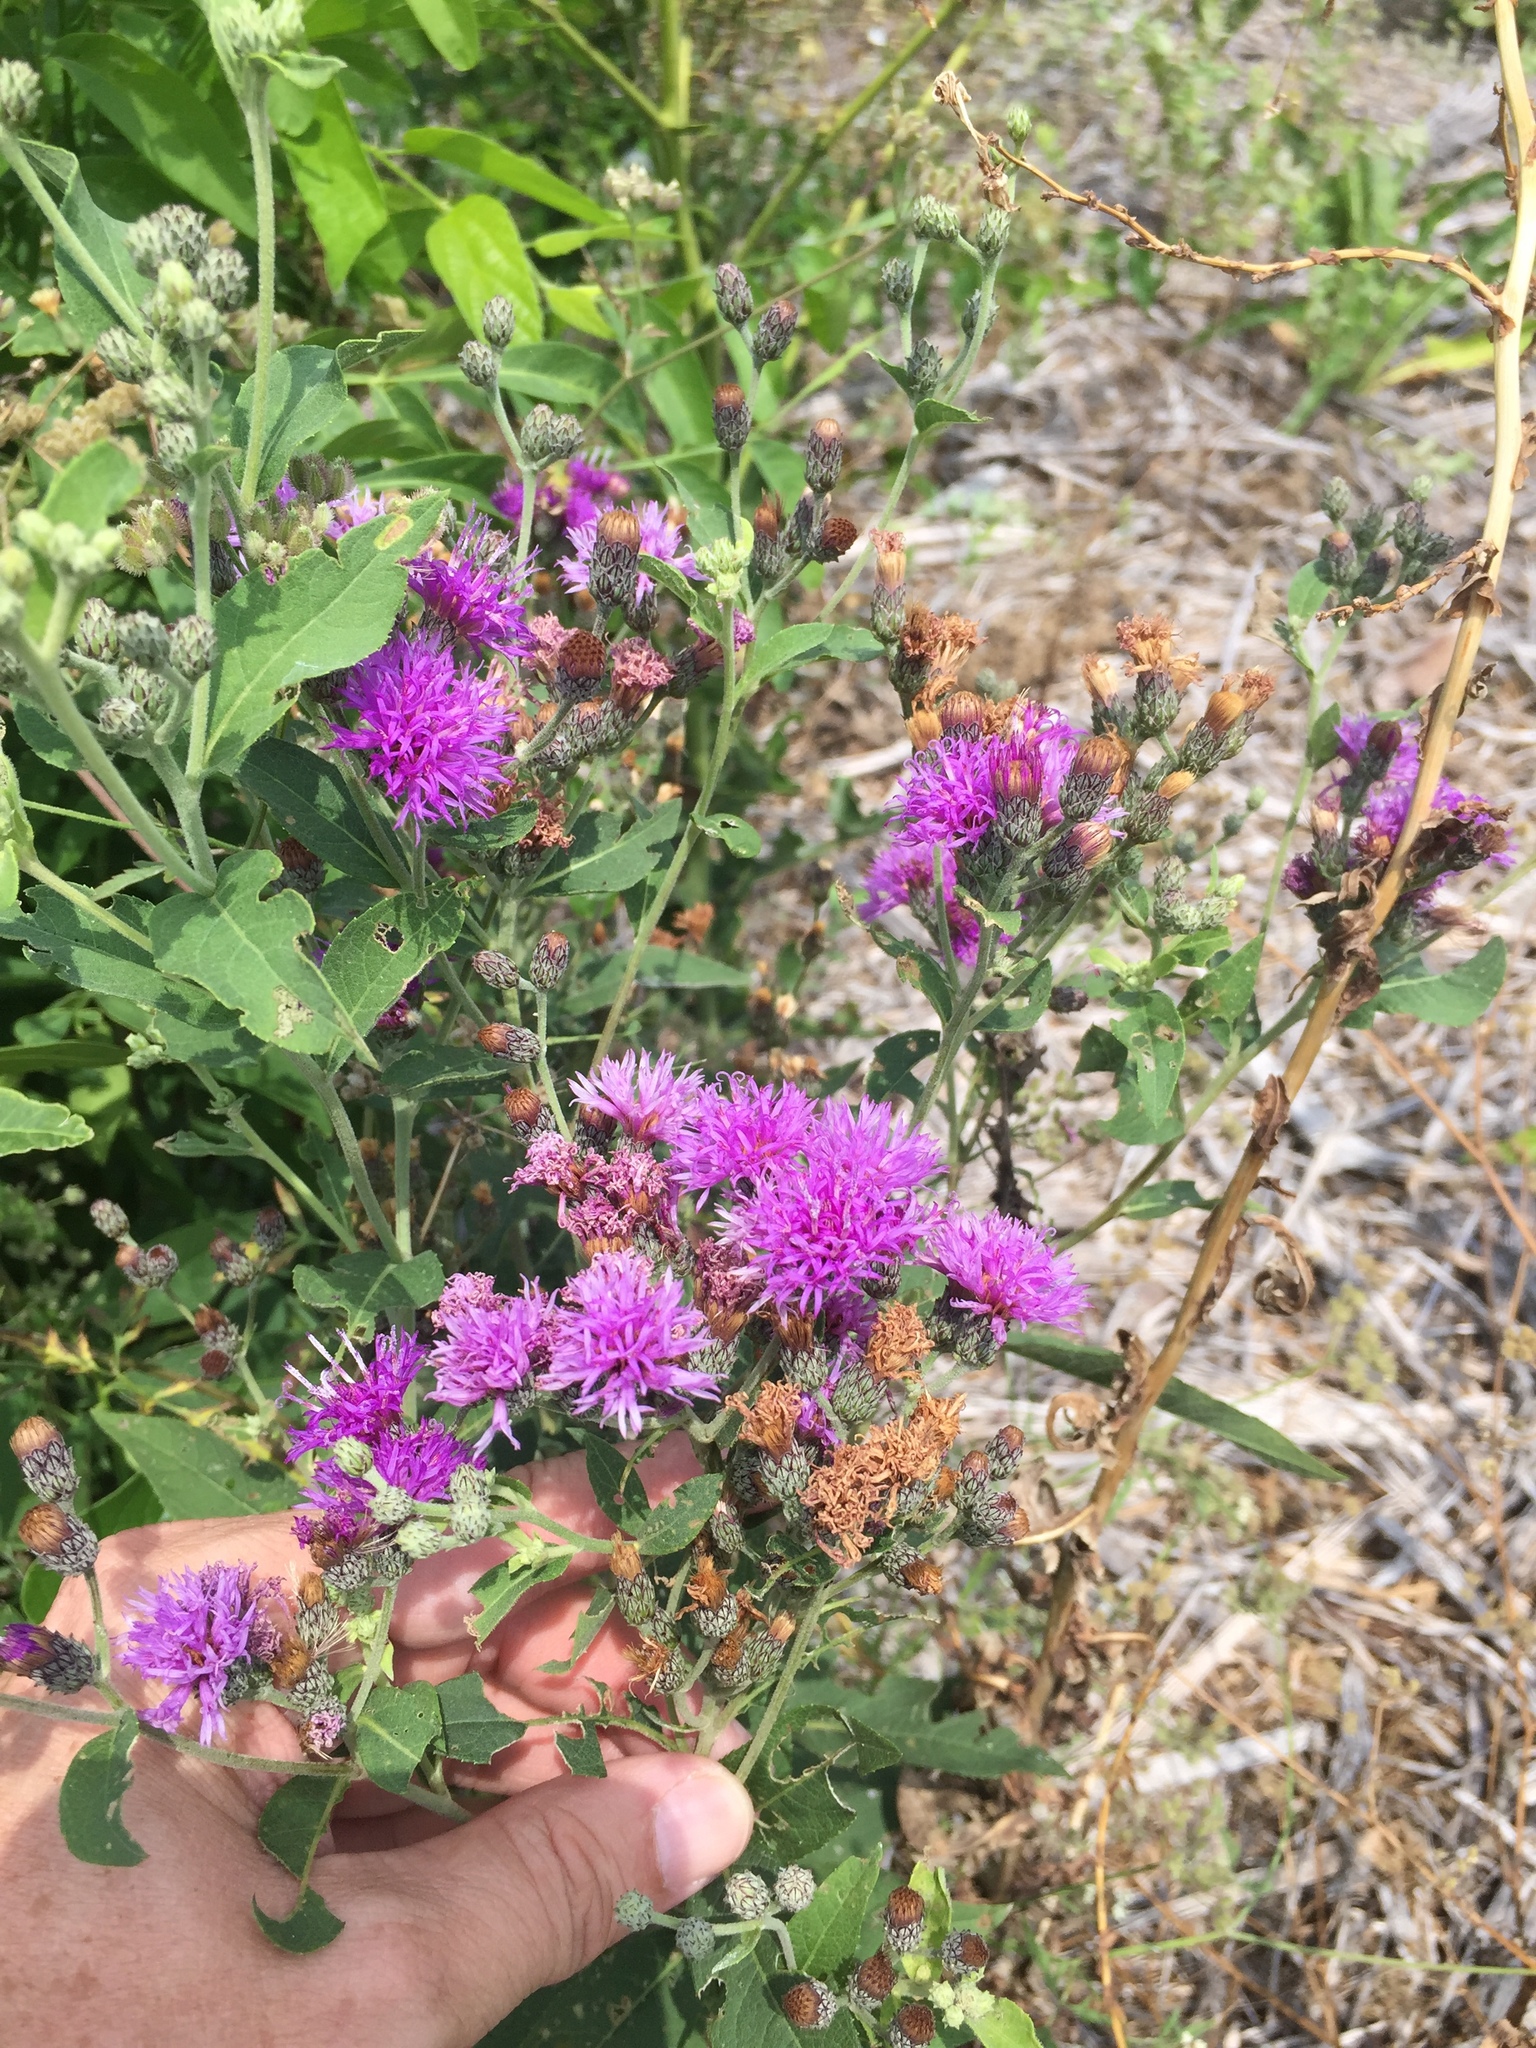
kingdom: Plantae
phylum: Tracheophyta
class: Magnoliopsida
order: Asterales
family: Asteraceae
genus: Vernonia
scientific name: Vernonia baldwinii
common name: Western ironweed
